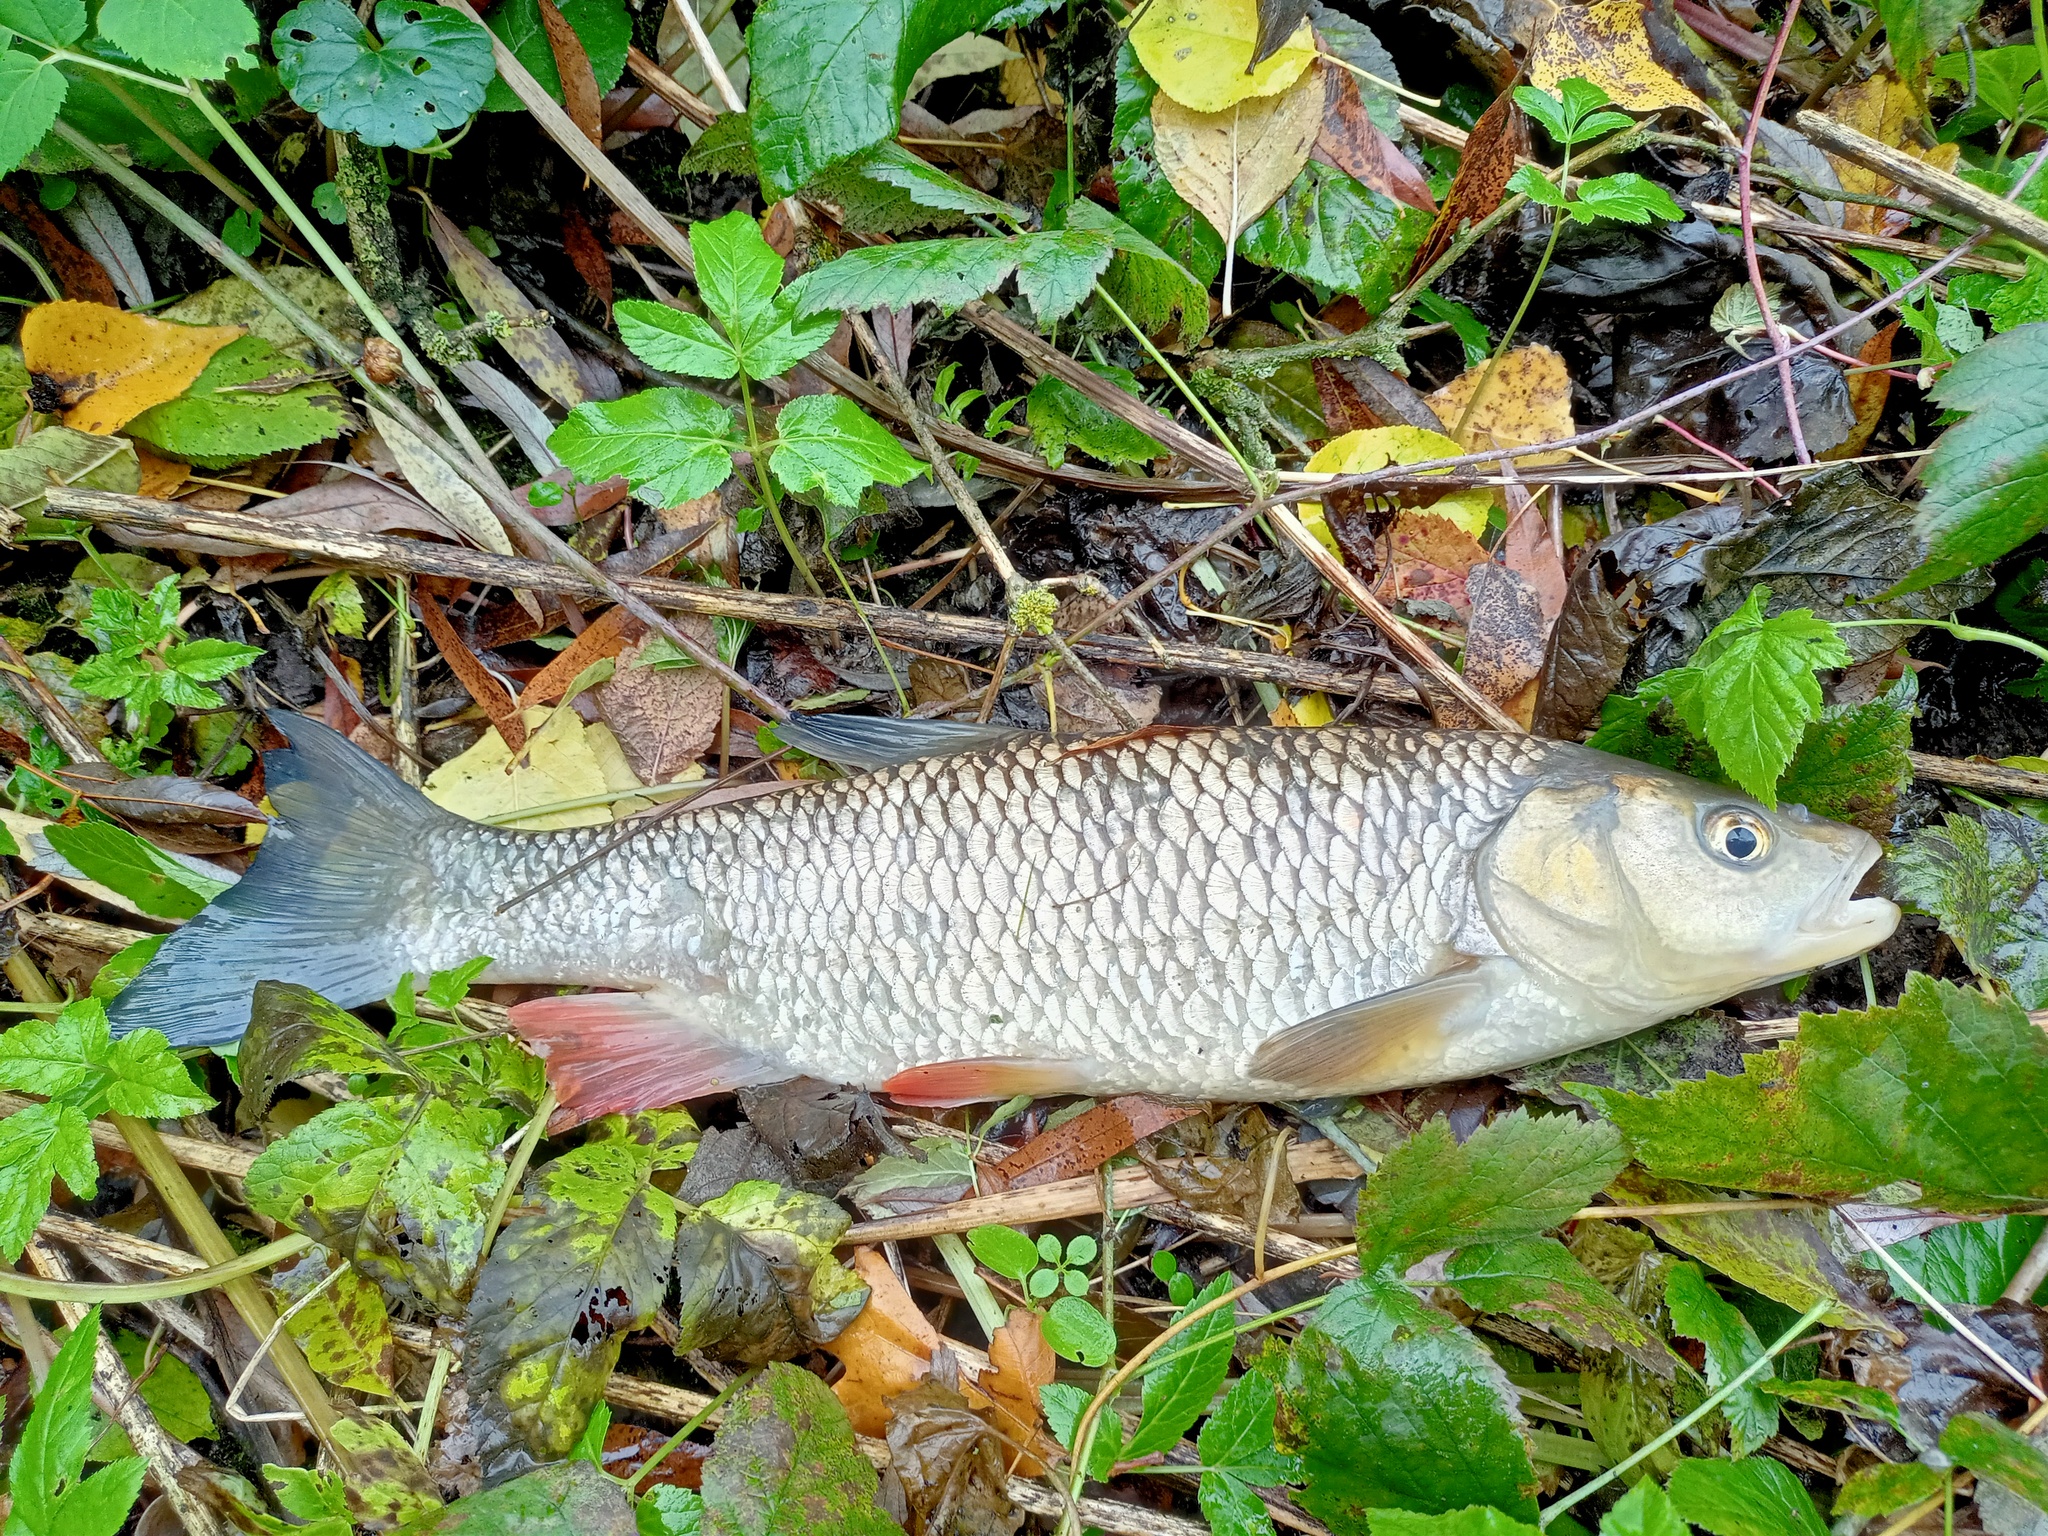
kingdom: Animalia
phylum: Chordata
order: Cypriniformes
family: Cyprinidae
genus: Squalius
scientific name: Squalius cephalus
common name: Chub
